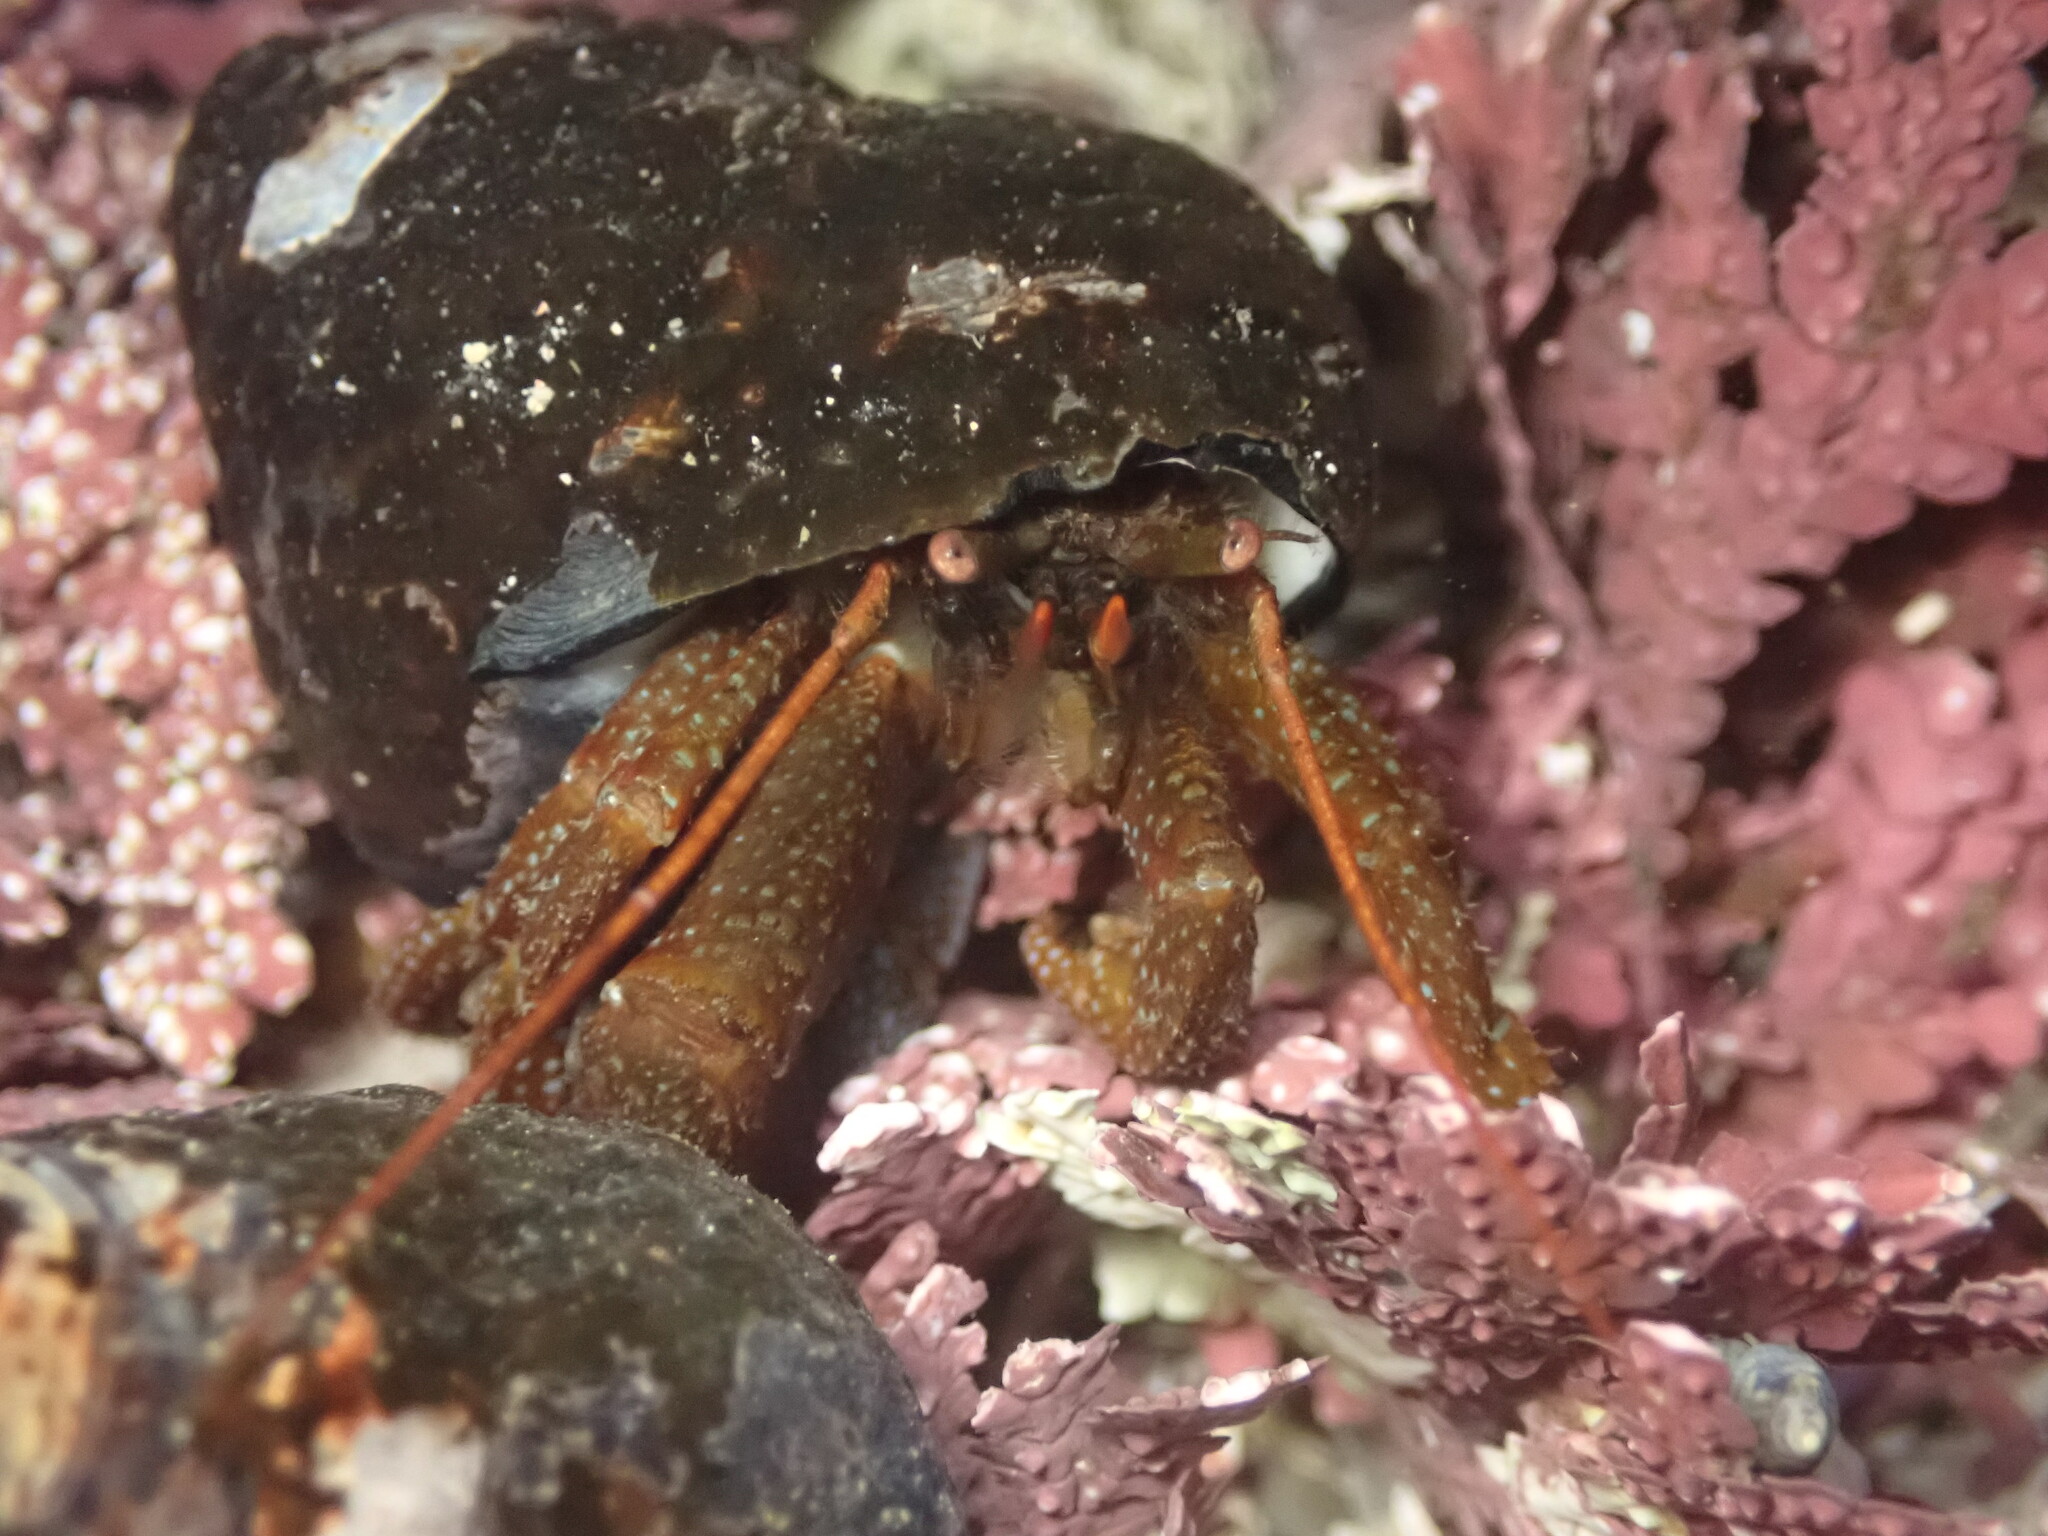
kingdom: Animalia
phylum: Arthropoda
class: Malacostraca
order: Decapoda
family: Paguridae
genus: Pagurus
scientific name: Pagurus granosimanus
